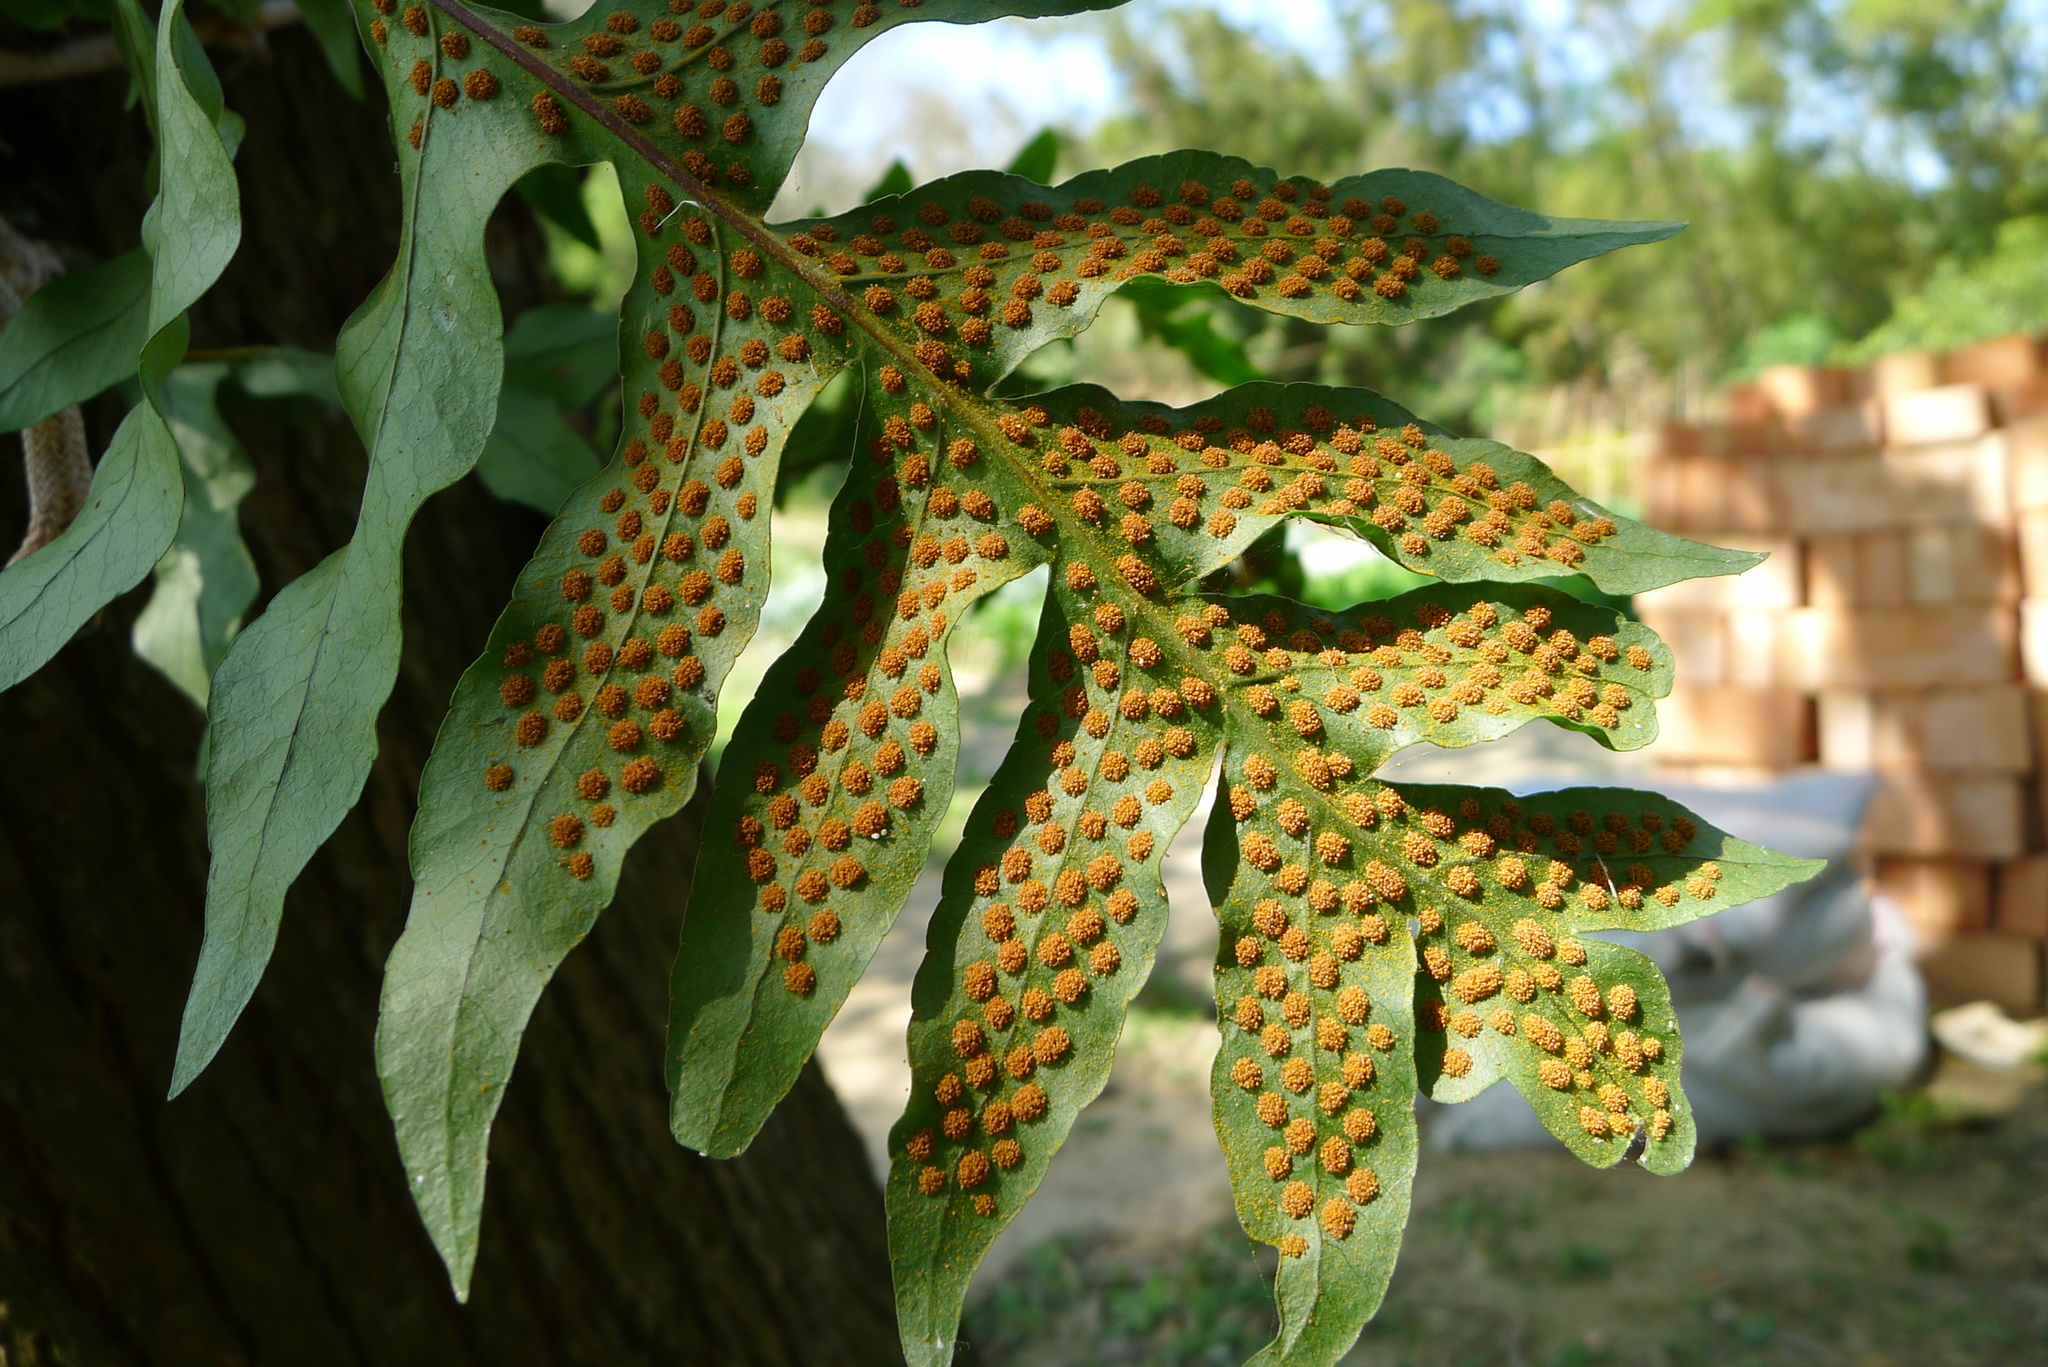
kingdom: Plantae
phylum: Tracheophyta
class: Polypodiopsida
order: Polypodiales
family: Polypodiaceae
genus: Drynaria
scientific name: Drynaria roosii
